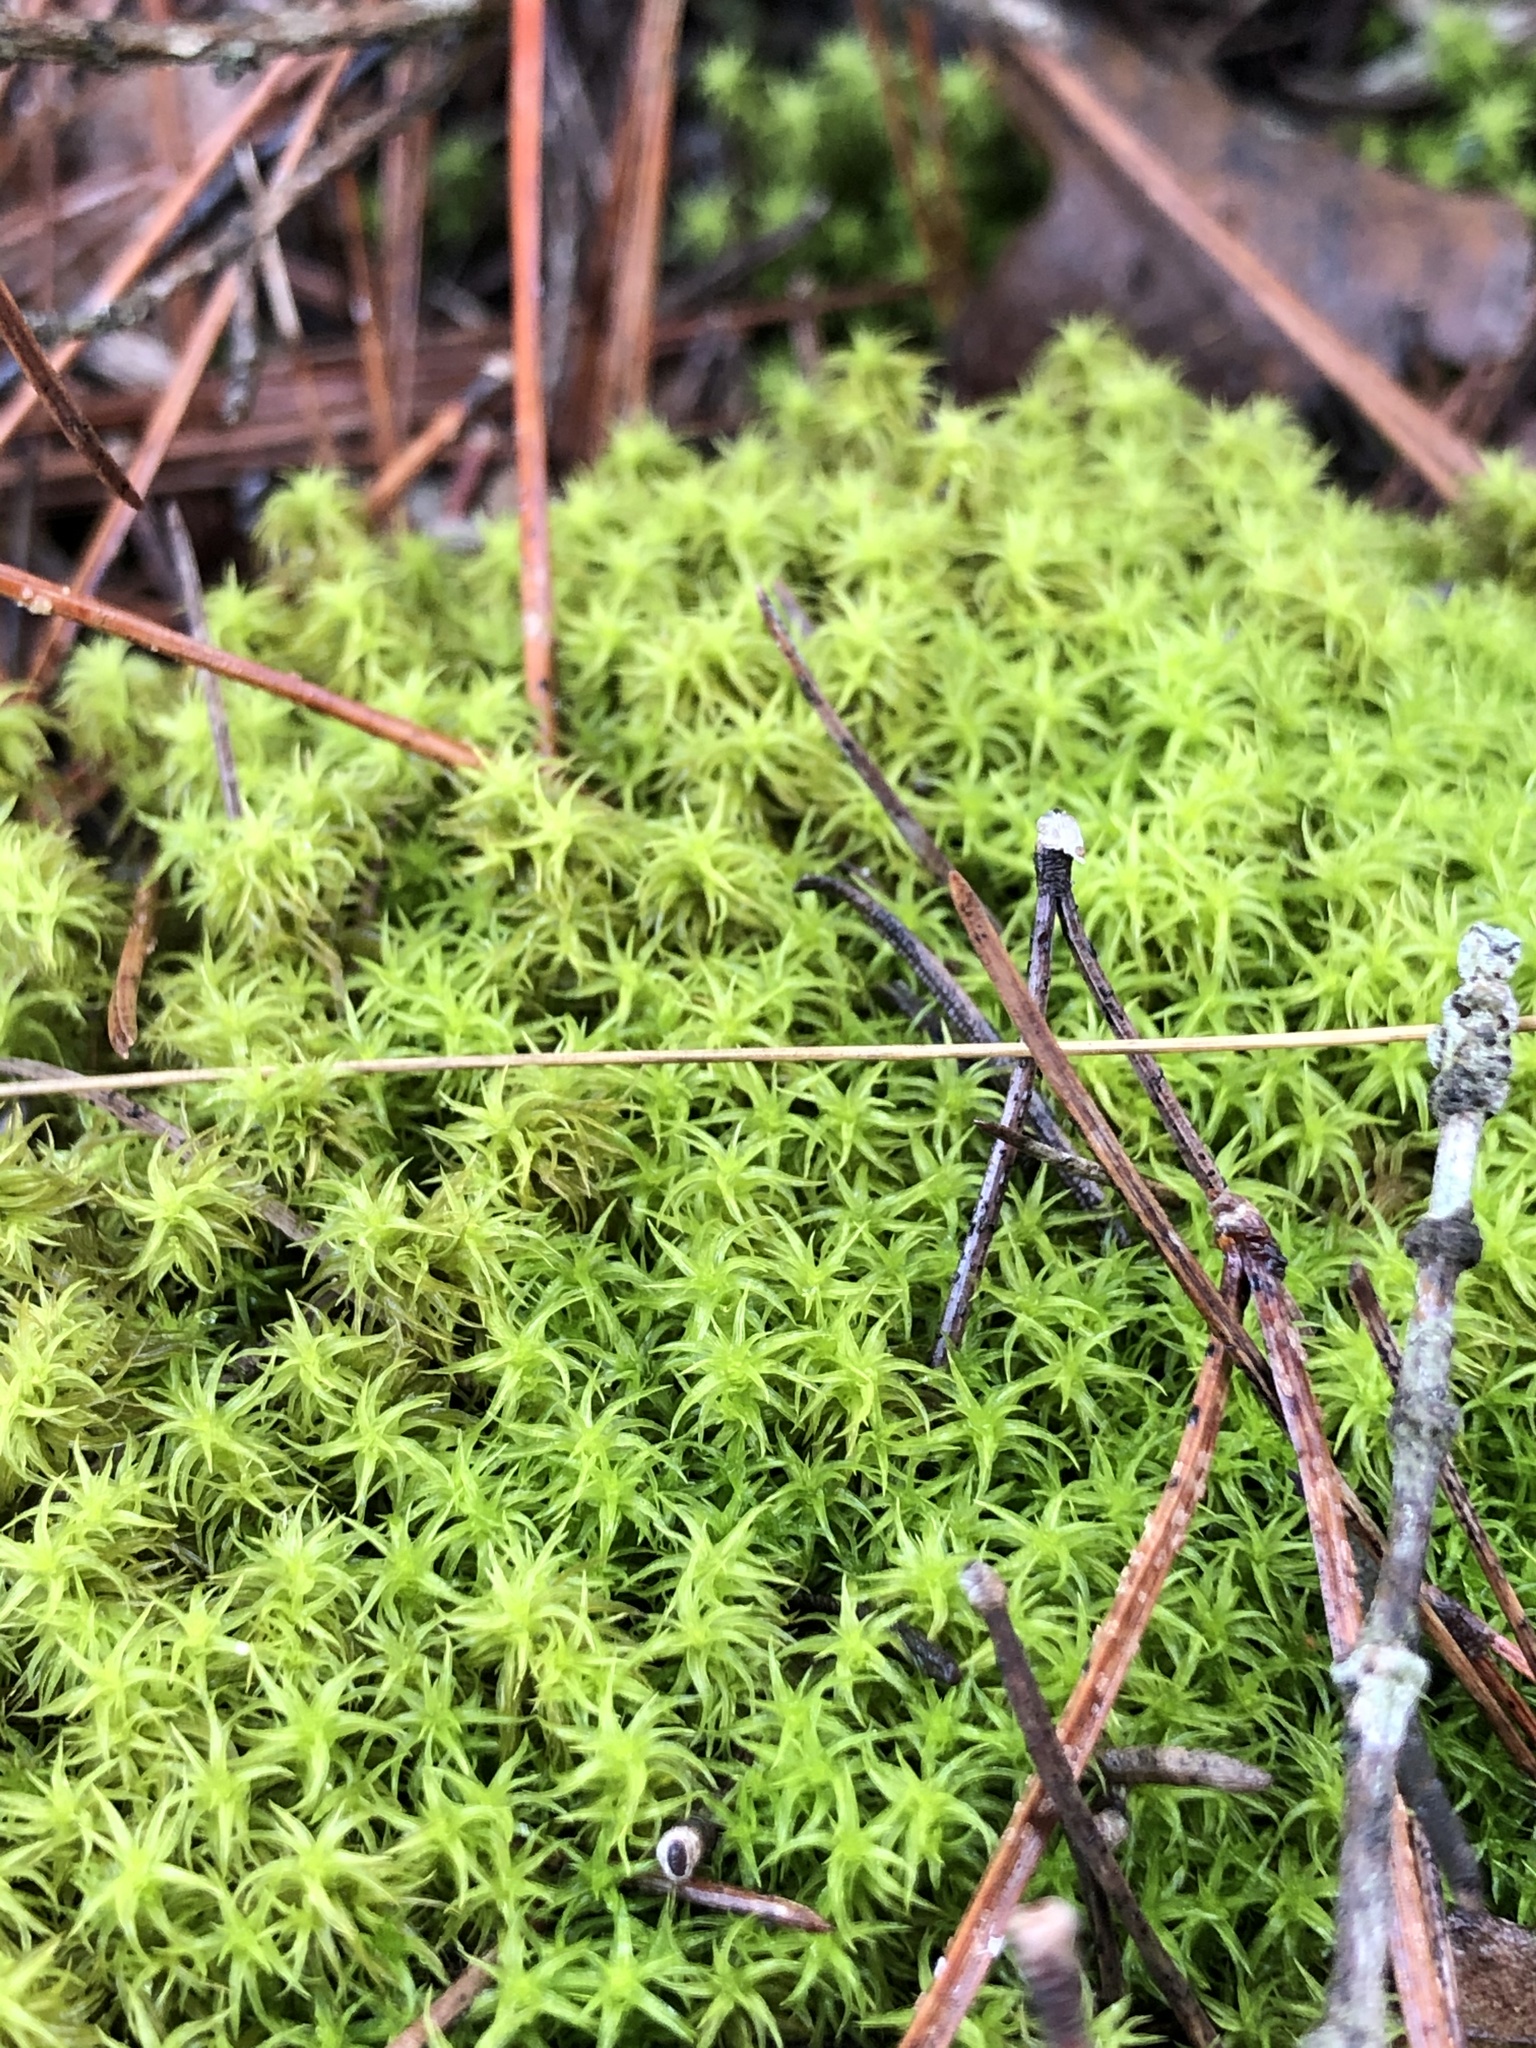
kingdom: Plantae
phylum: Bryophyta
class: Bryopsida
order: Pottiales
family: Pottiaceae
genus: Pleurochaete
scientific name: Pleurochaete squarrosa
